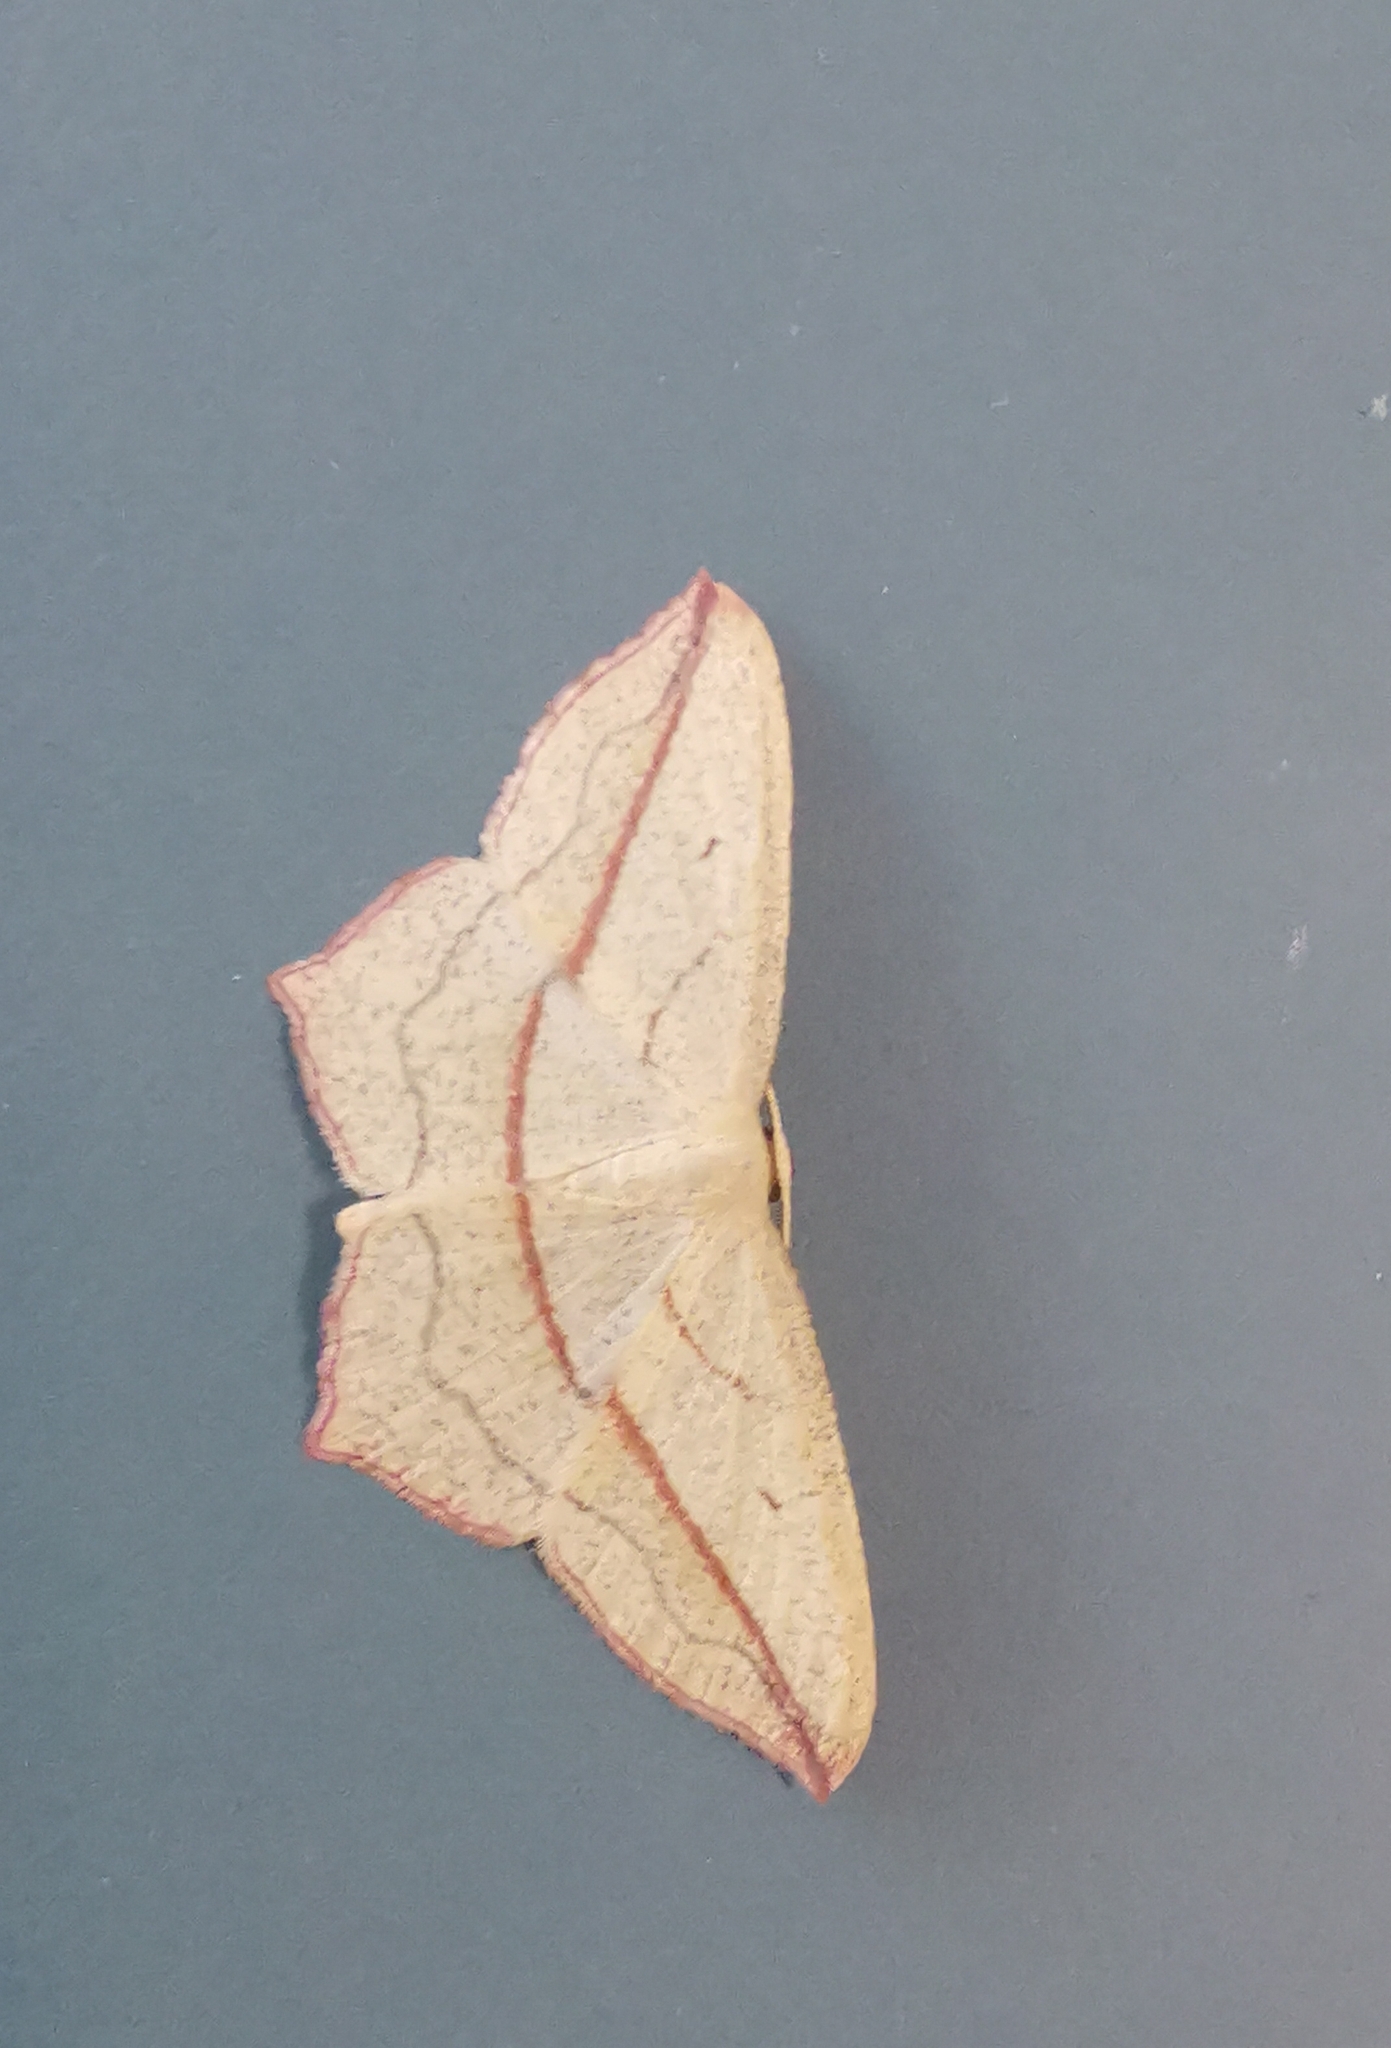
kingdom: Animalia
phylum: Arthropoda
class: Insecta
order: Lepidoptera
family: Geometridae
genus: Timandra
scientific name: Timandra comae
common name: Blood-vein
